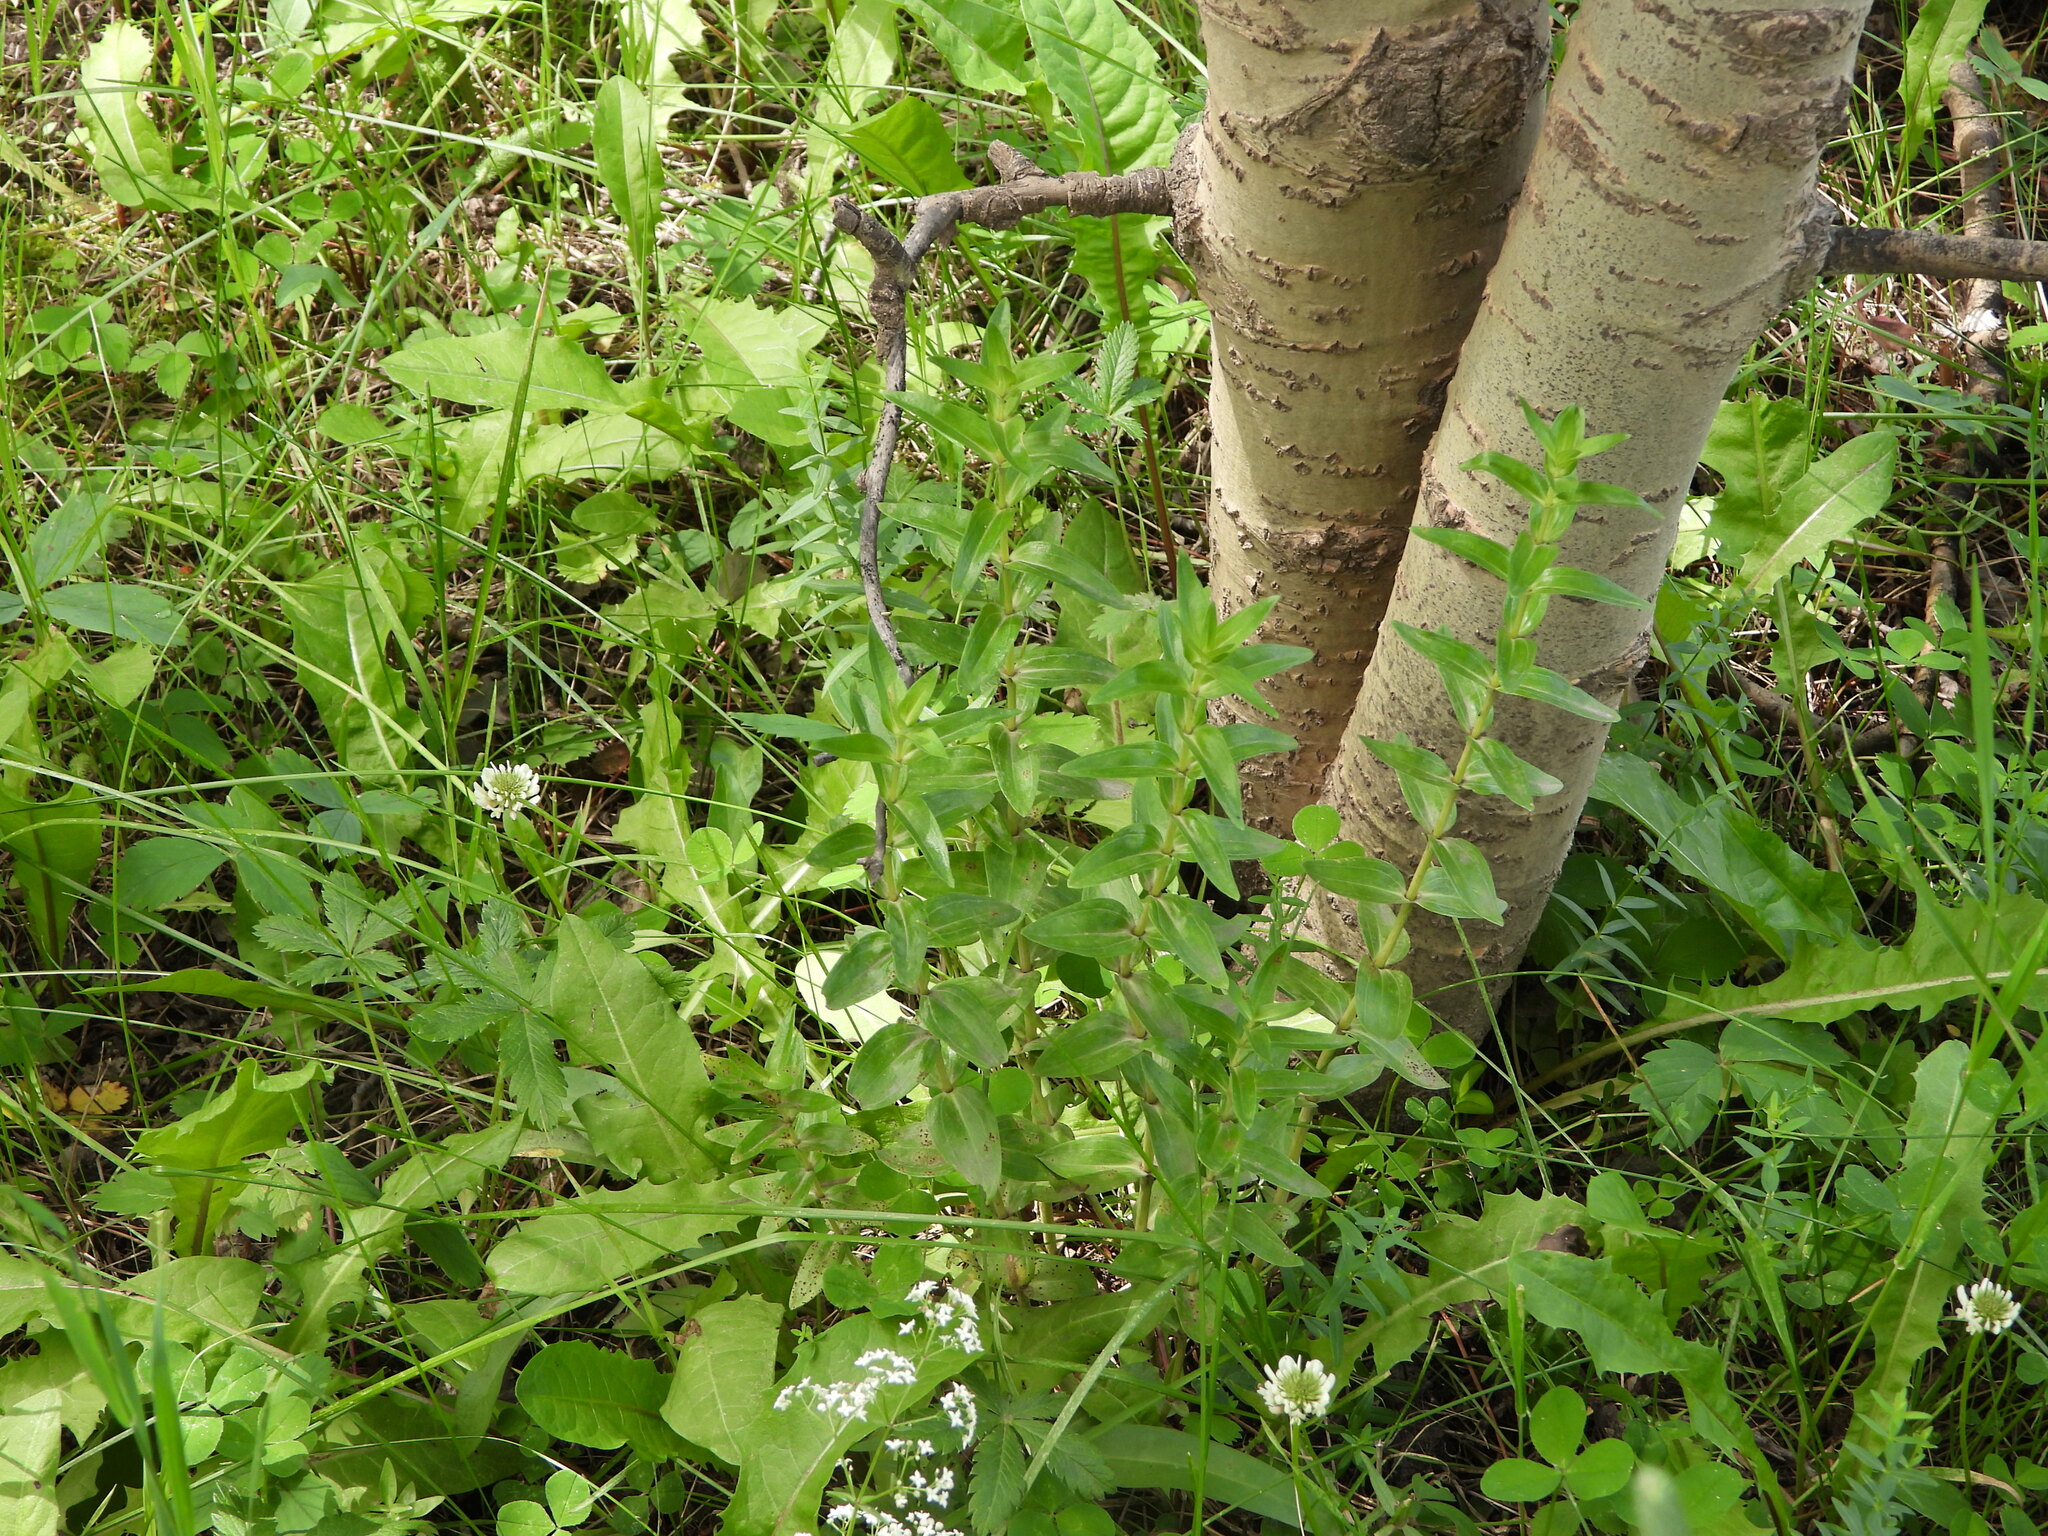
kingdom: Plantae
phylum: Tracheophyta
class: Magnoliopsida
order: Gentianales
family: Gentianaceae
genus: Gentiana
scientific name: Gentiana parryi
